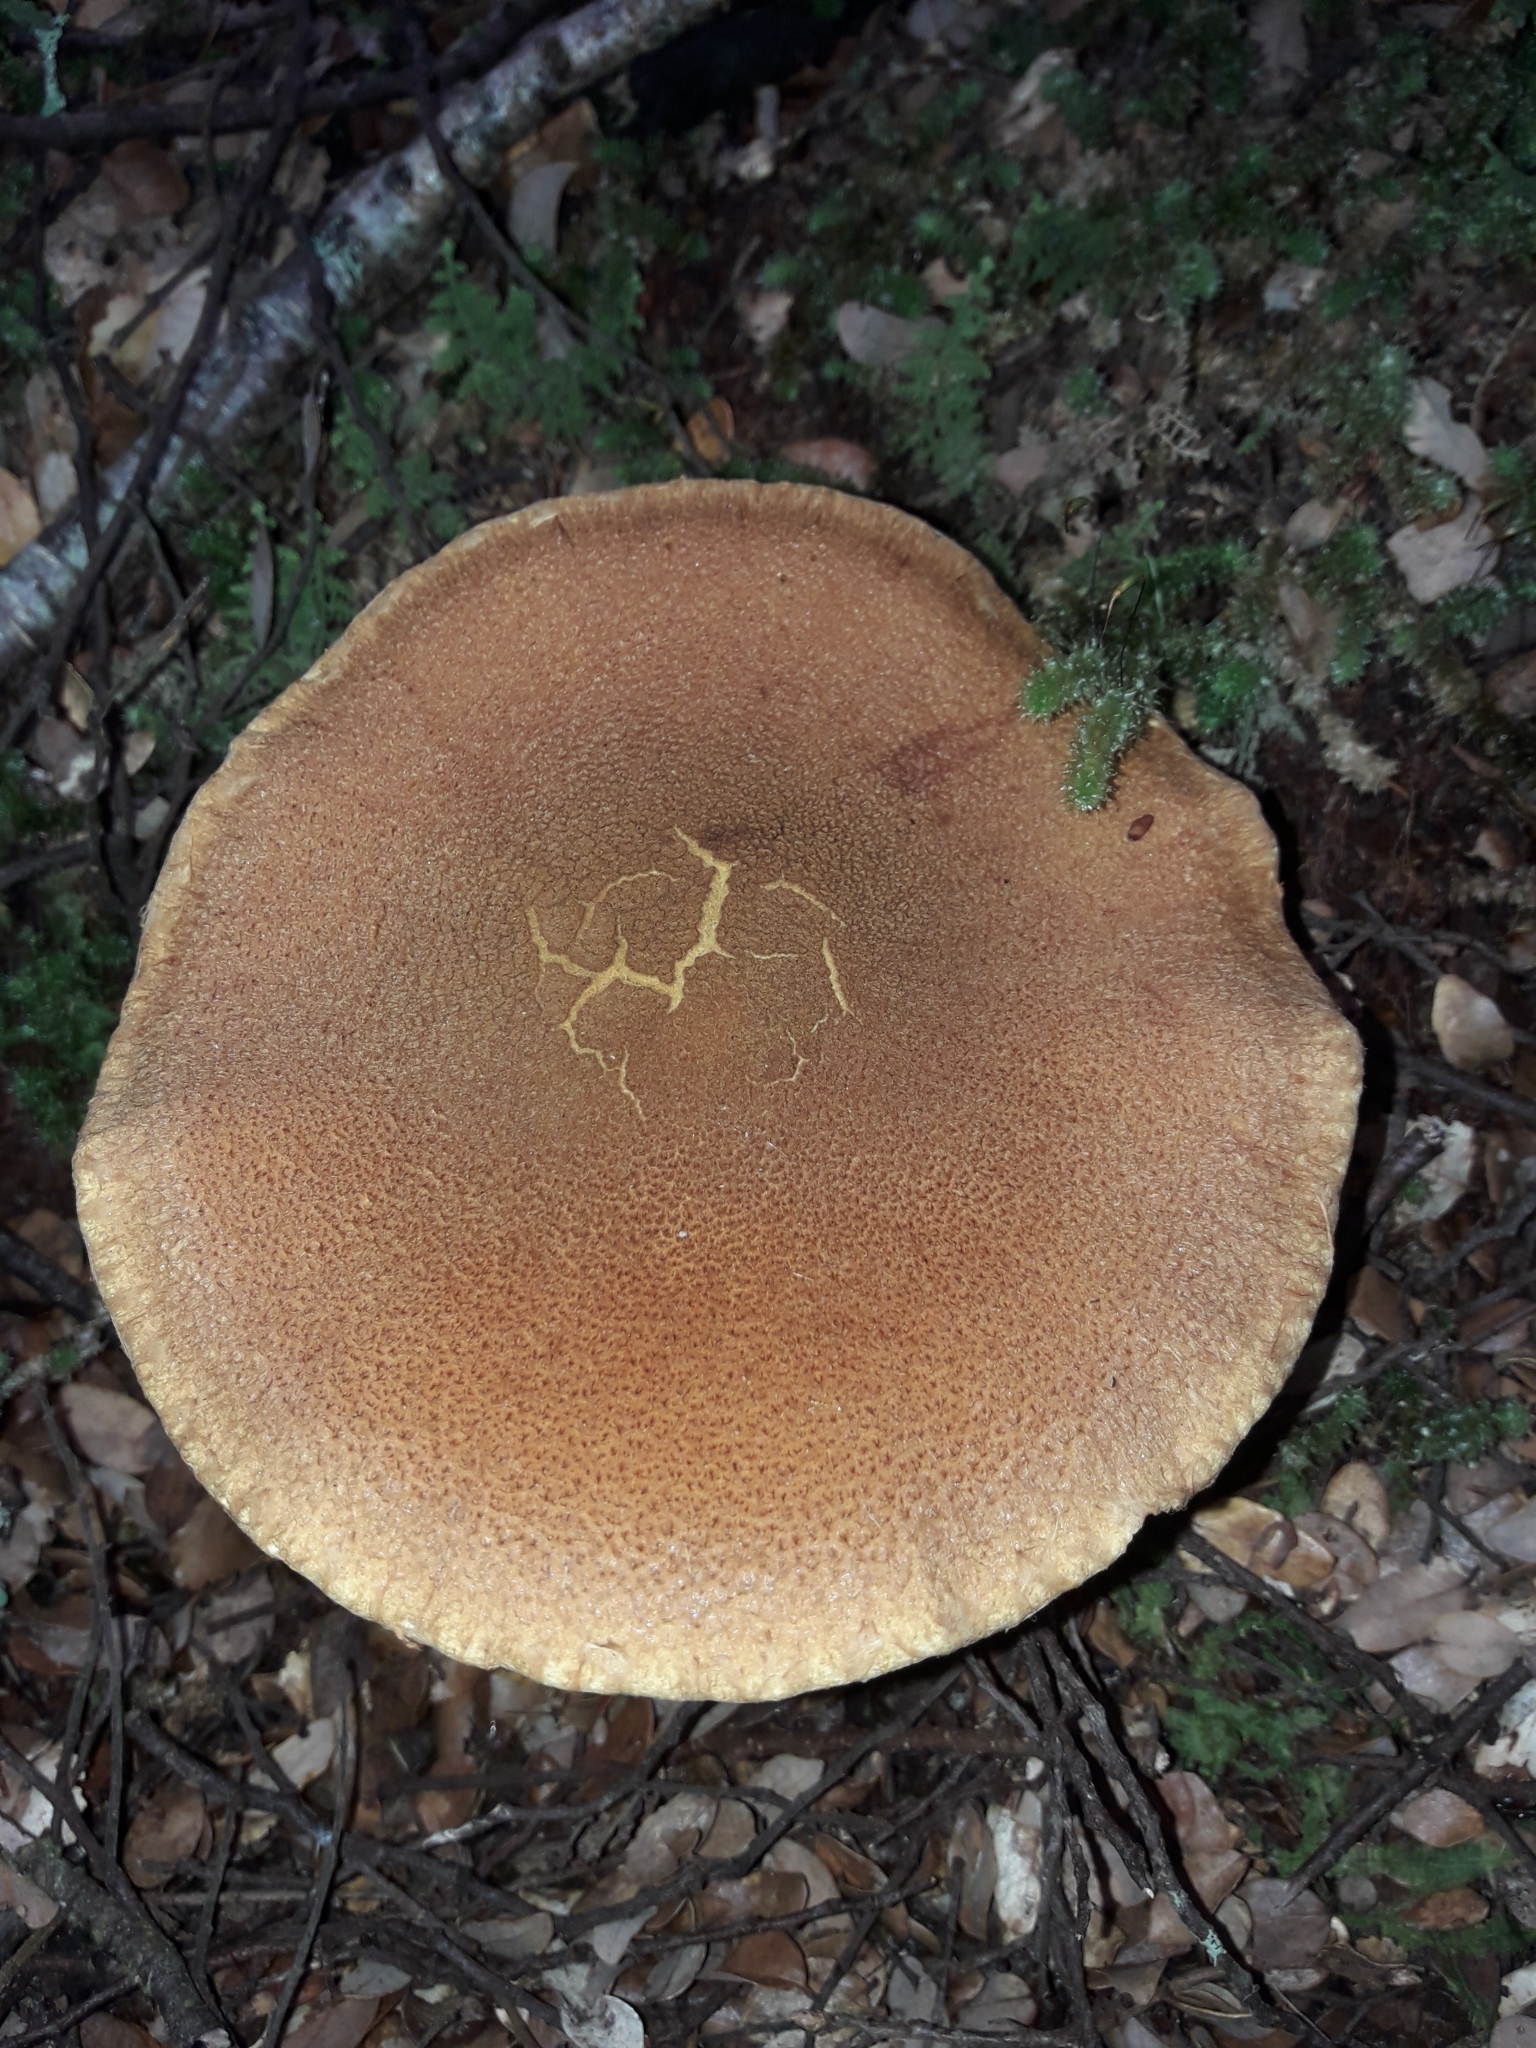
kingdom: Fungi
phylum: Basidiomycota
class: Agaricomycetes
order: Agaricales
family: Cortinariaceae
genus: Thaxterogaster
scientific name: Thaxterogaster castoreus
